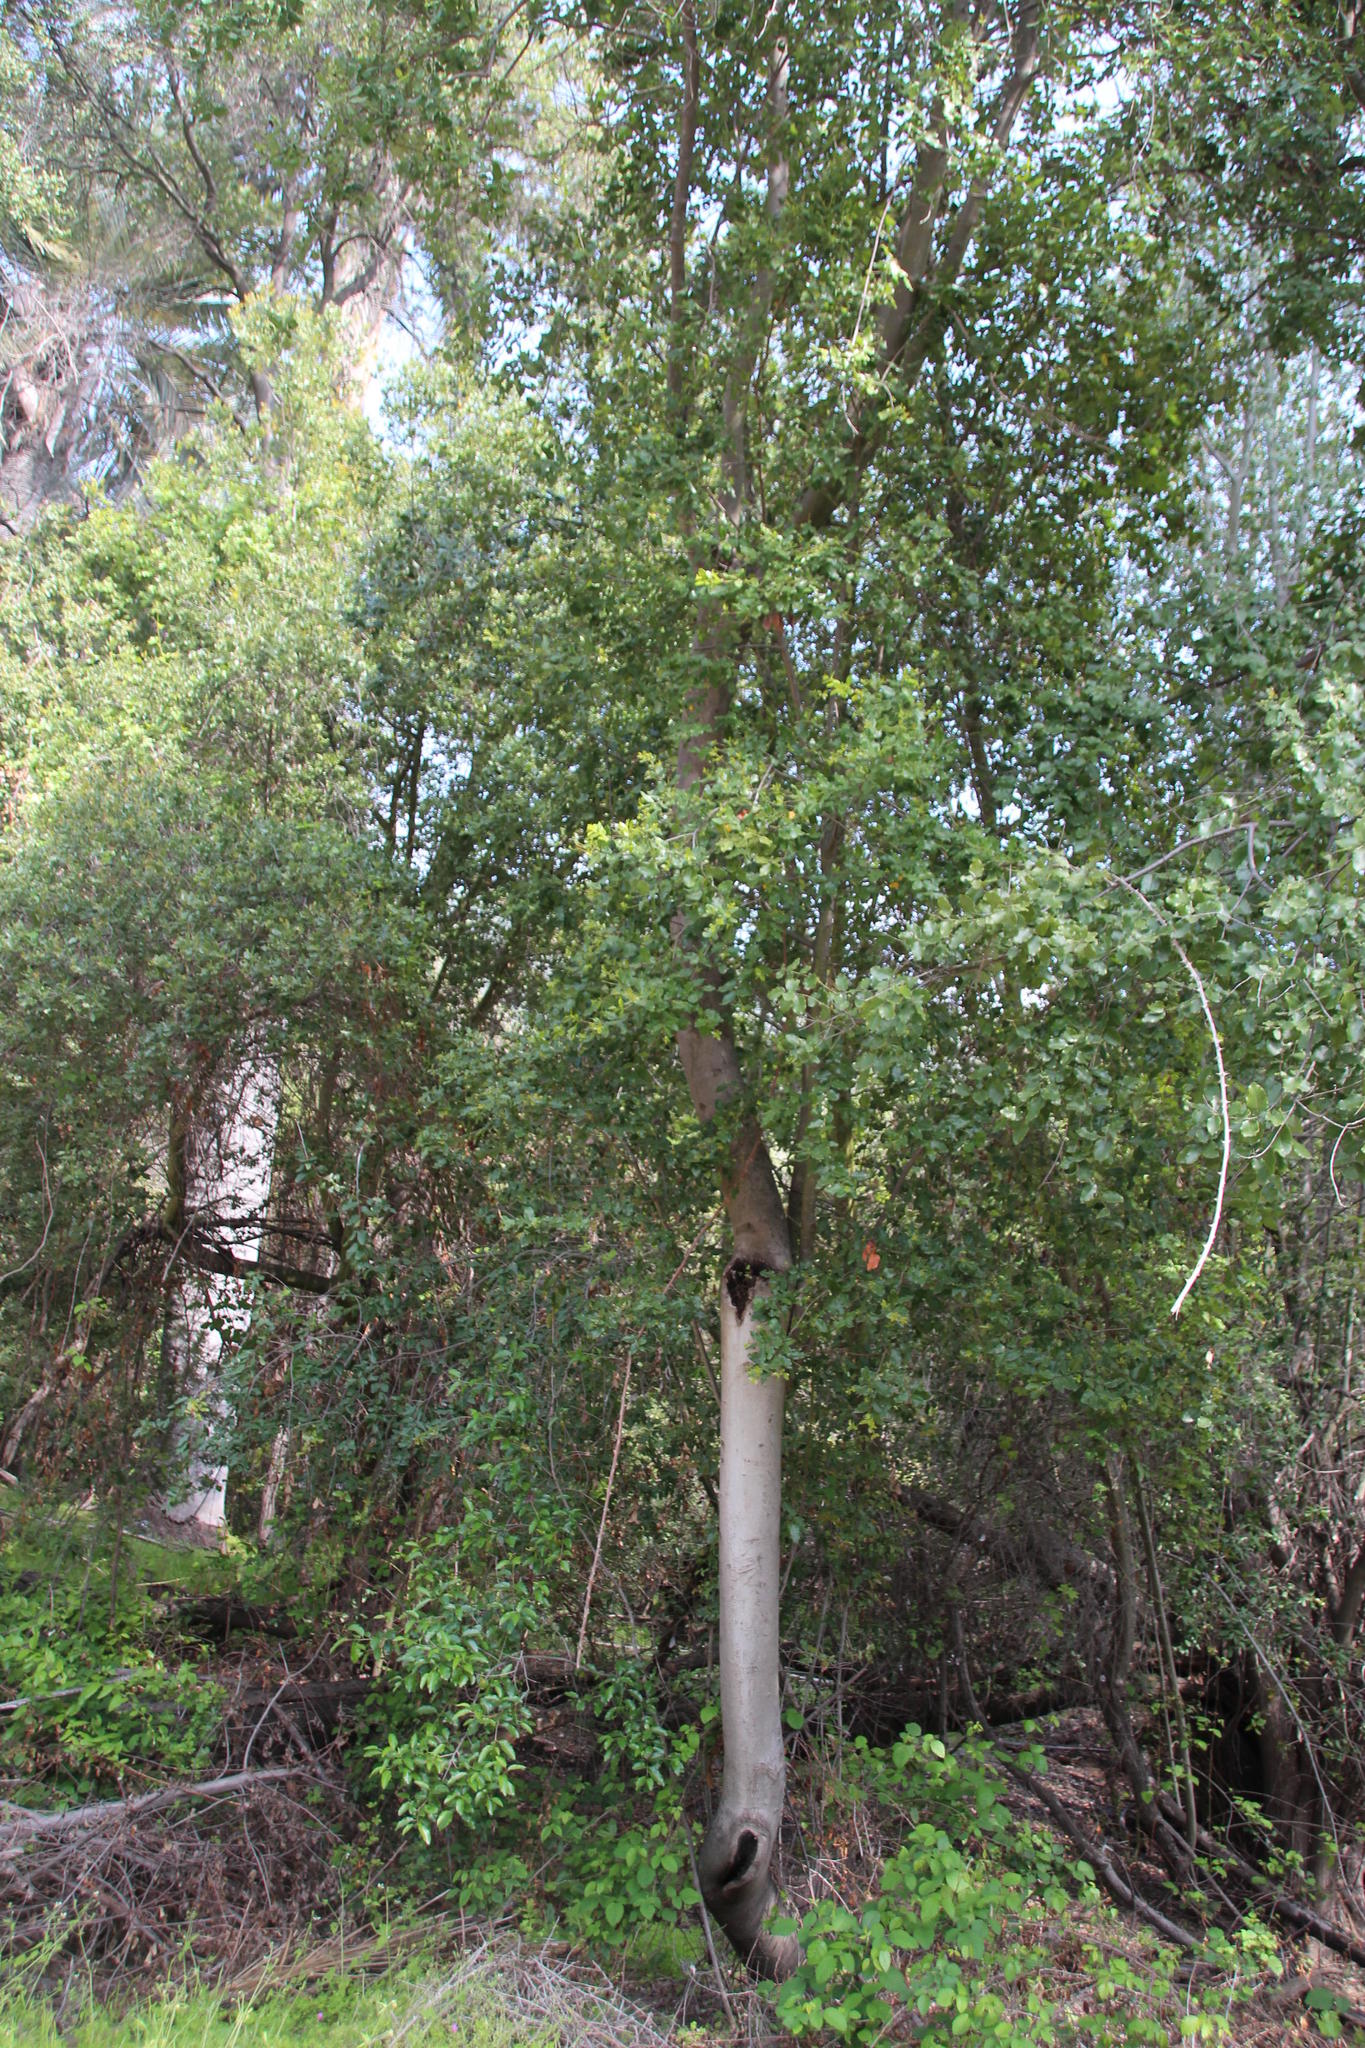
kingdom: Plantae
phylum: Tracheophyta
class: Magnoliopsida
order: Laurales
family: Lauraceae
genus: Cryptocarya
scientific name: Cryptocarya alba
